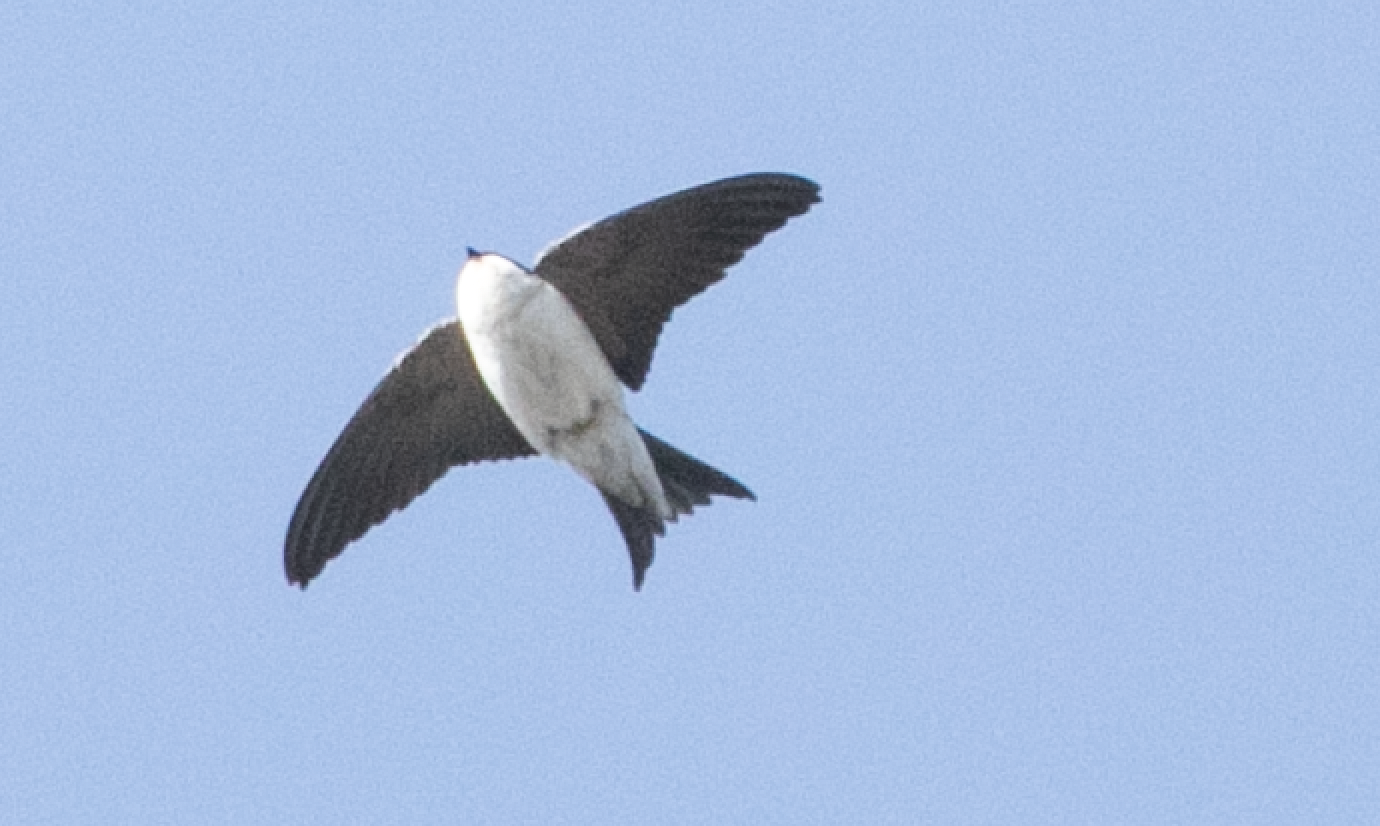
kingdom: Animalia
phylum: Chordata
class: Aves
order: Passeriformes
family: Hirundinidae
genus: Delichon
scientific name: Delichon urbicum
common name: Common house martin
